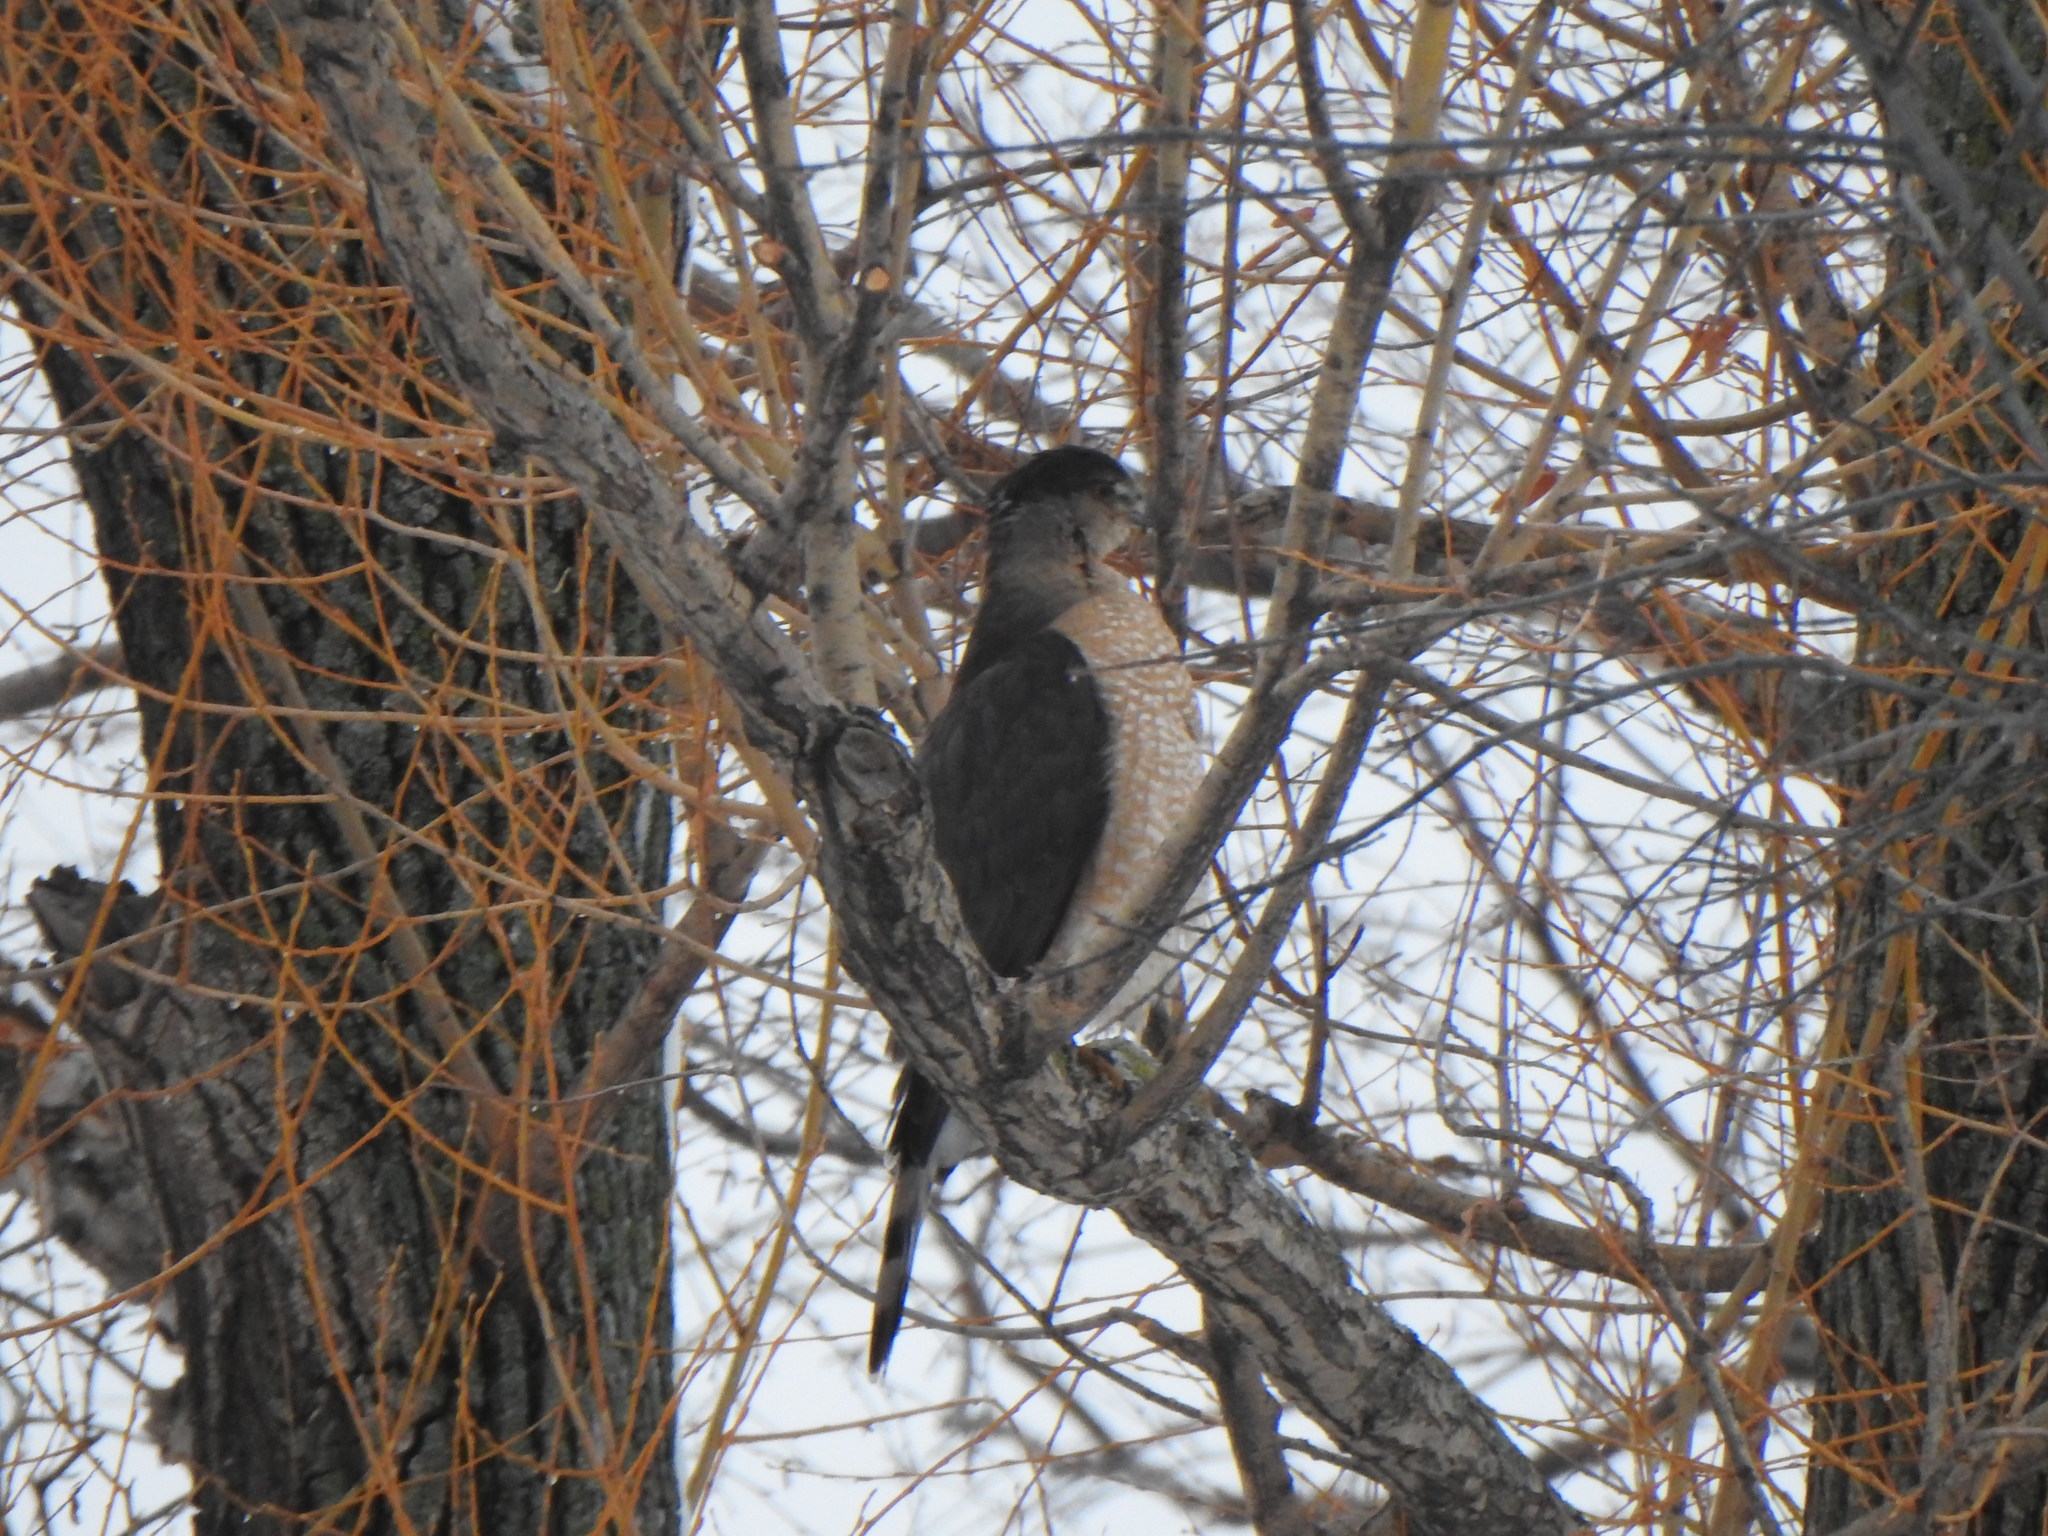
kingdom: Animalia
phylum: Chordata
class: Aves
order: Accipitriformes
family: Accipitridae
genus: Accipiter
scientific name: Accipiter cooperii
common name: Cooper's hawk
